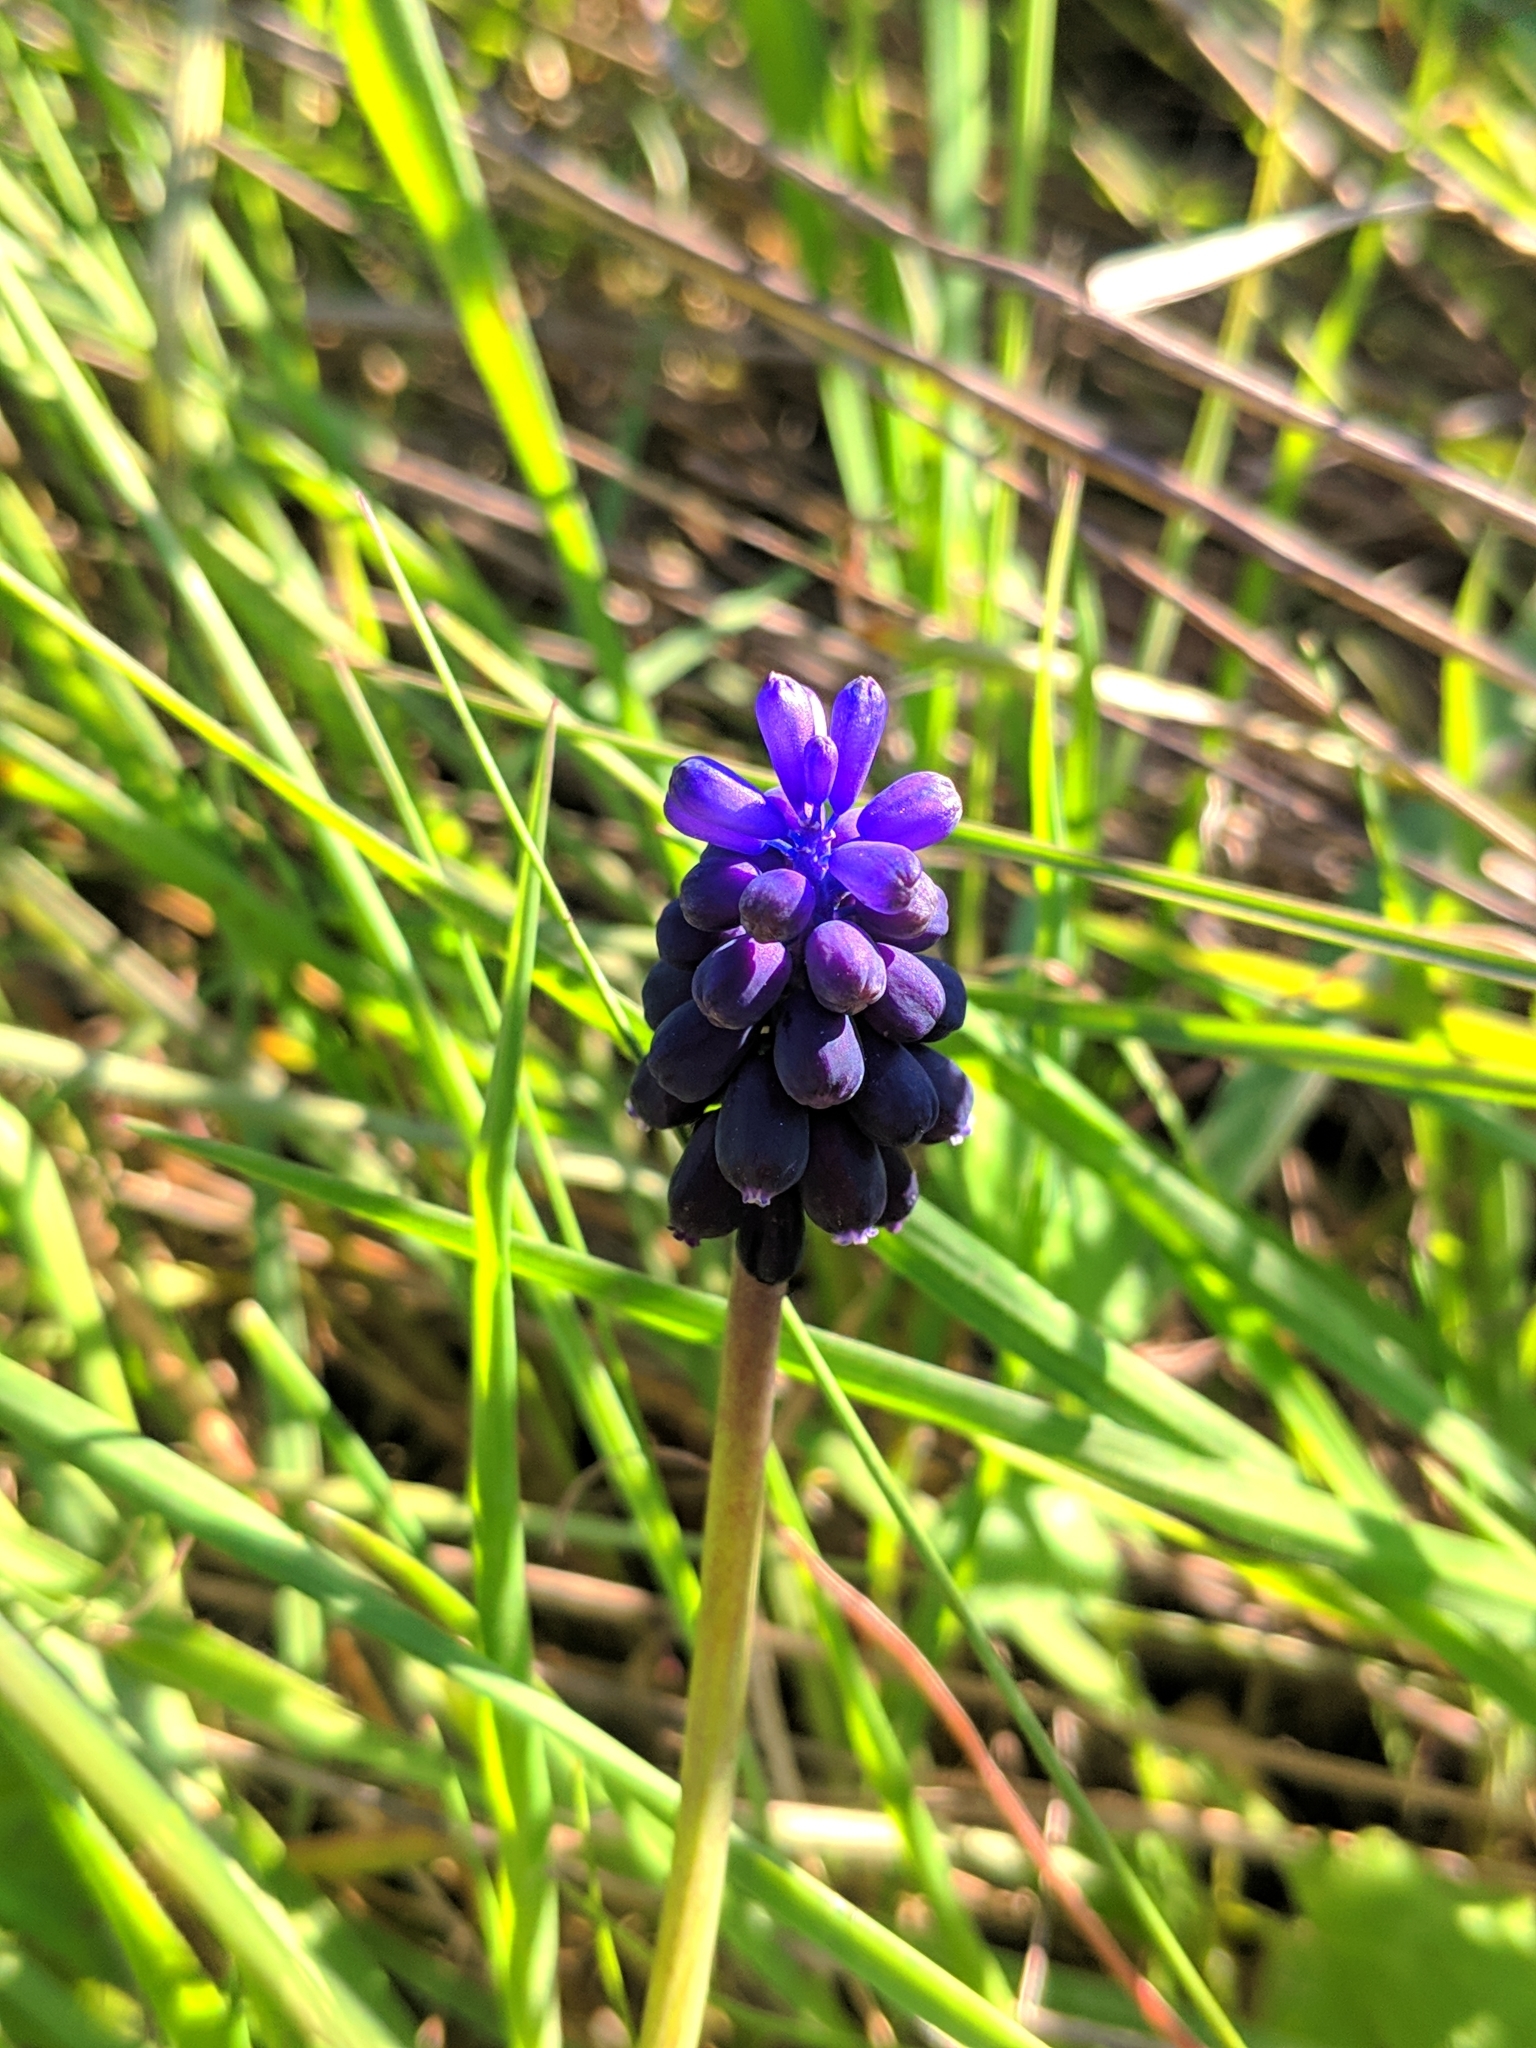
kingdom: Plantae
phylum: Tracheophyta
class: Liliopsida
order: Asparagales
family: Asparagaceae
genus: Muscari
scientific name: Muscari neglectum
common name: Grape-hyacinth
